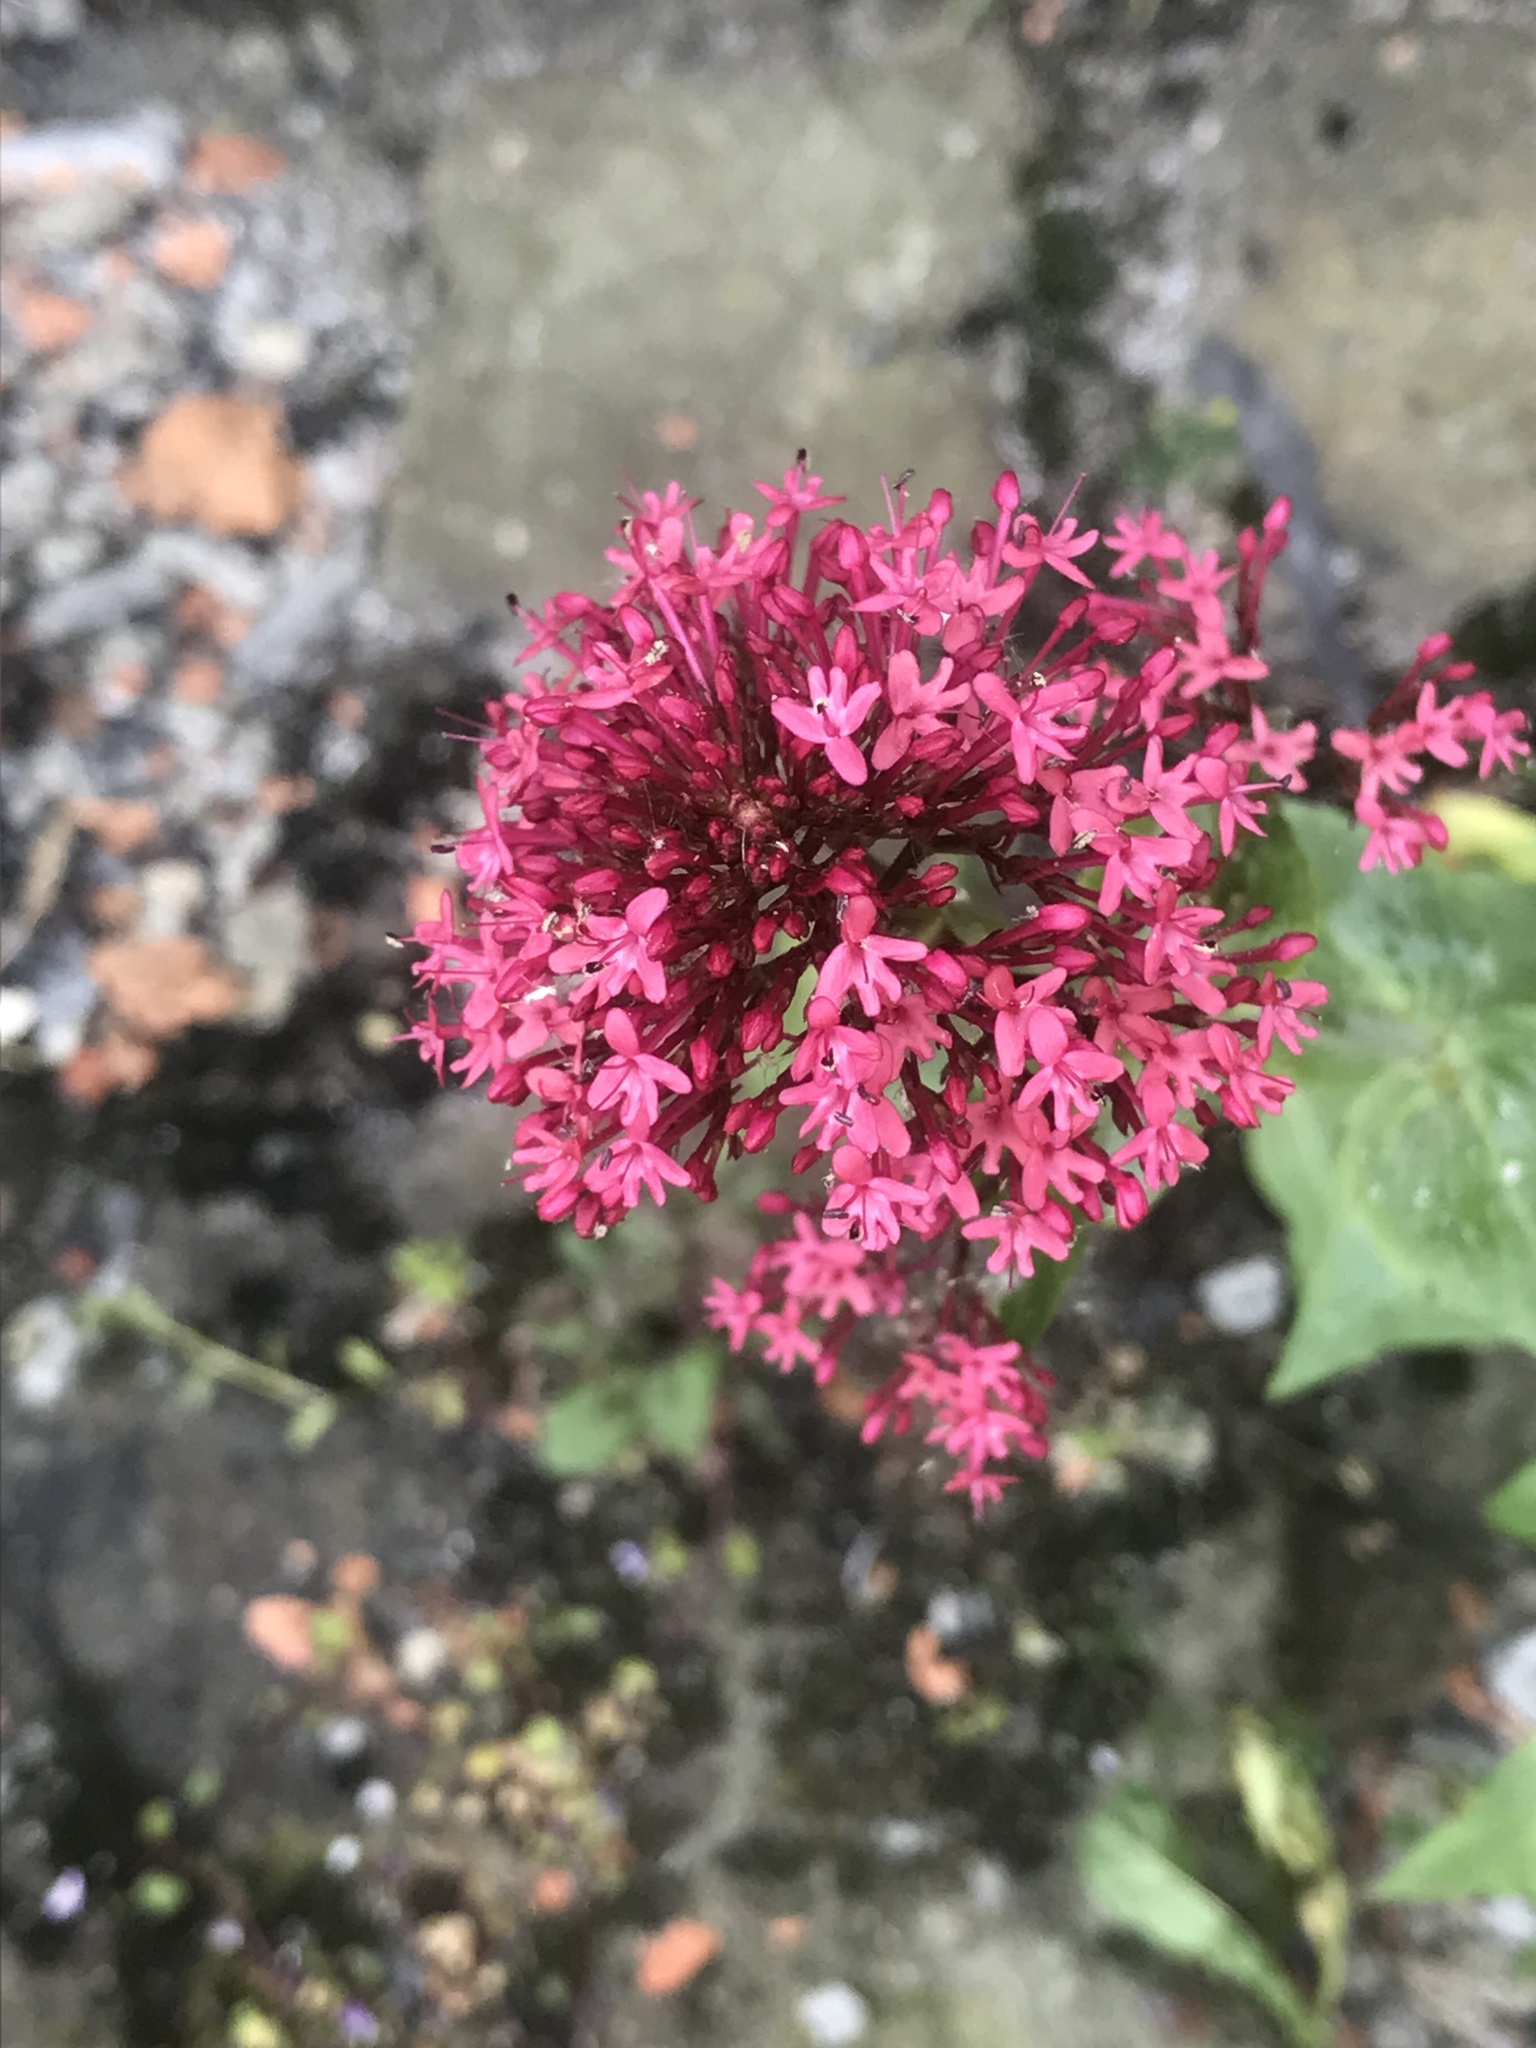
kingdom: Plantae
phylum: Tracheophyta
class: Magnoliopsida
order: Dipsacales
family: Caprifoliaceae
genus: Centranthus
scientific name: Centranthus ruber
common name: Red valerian
